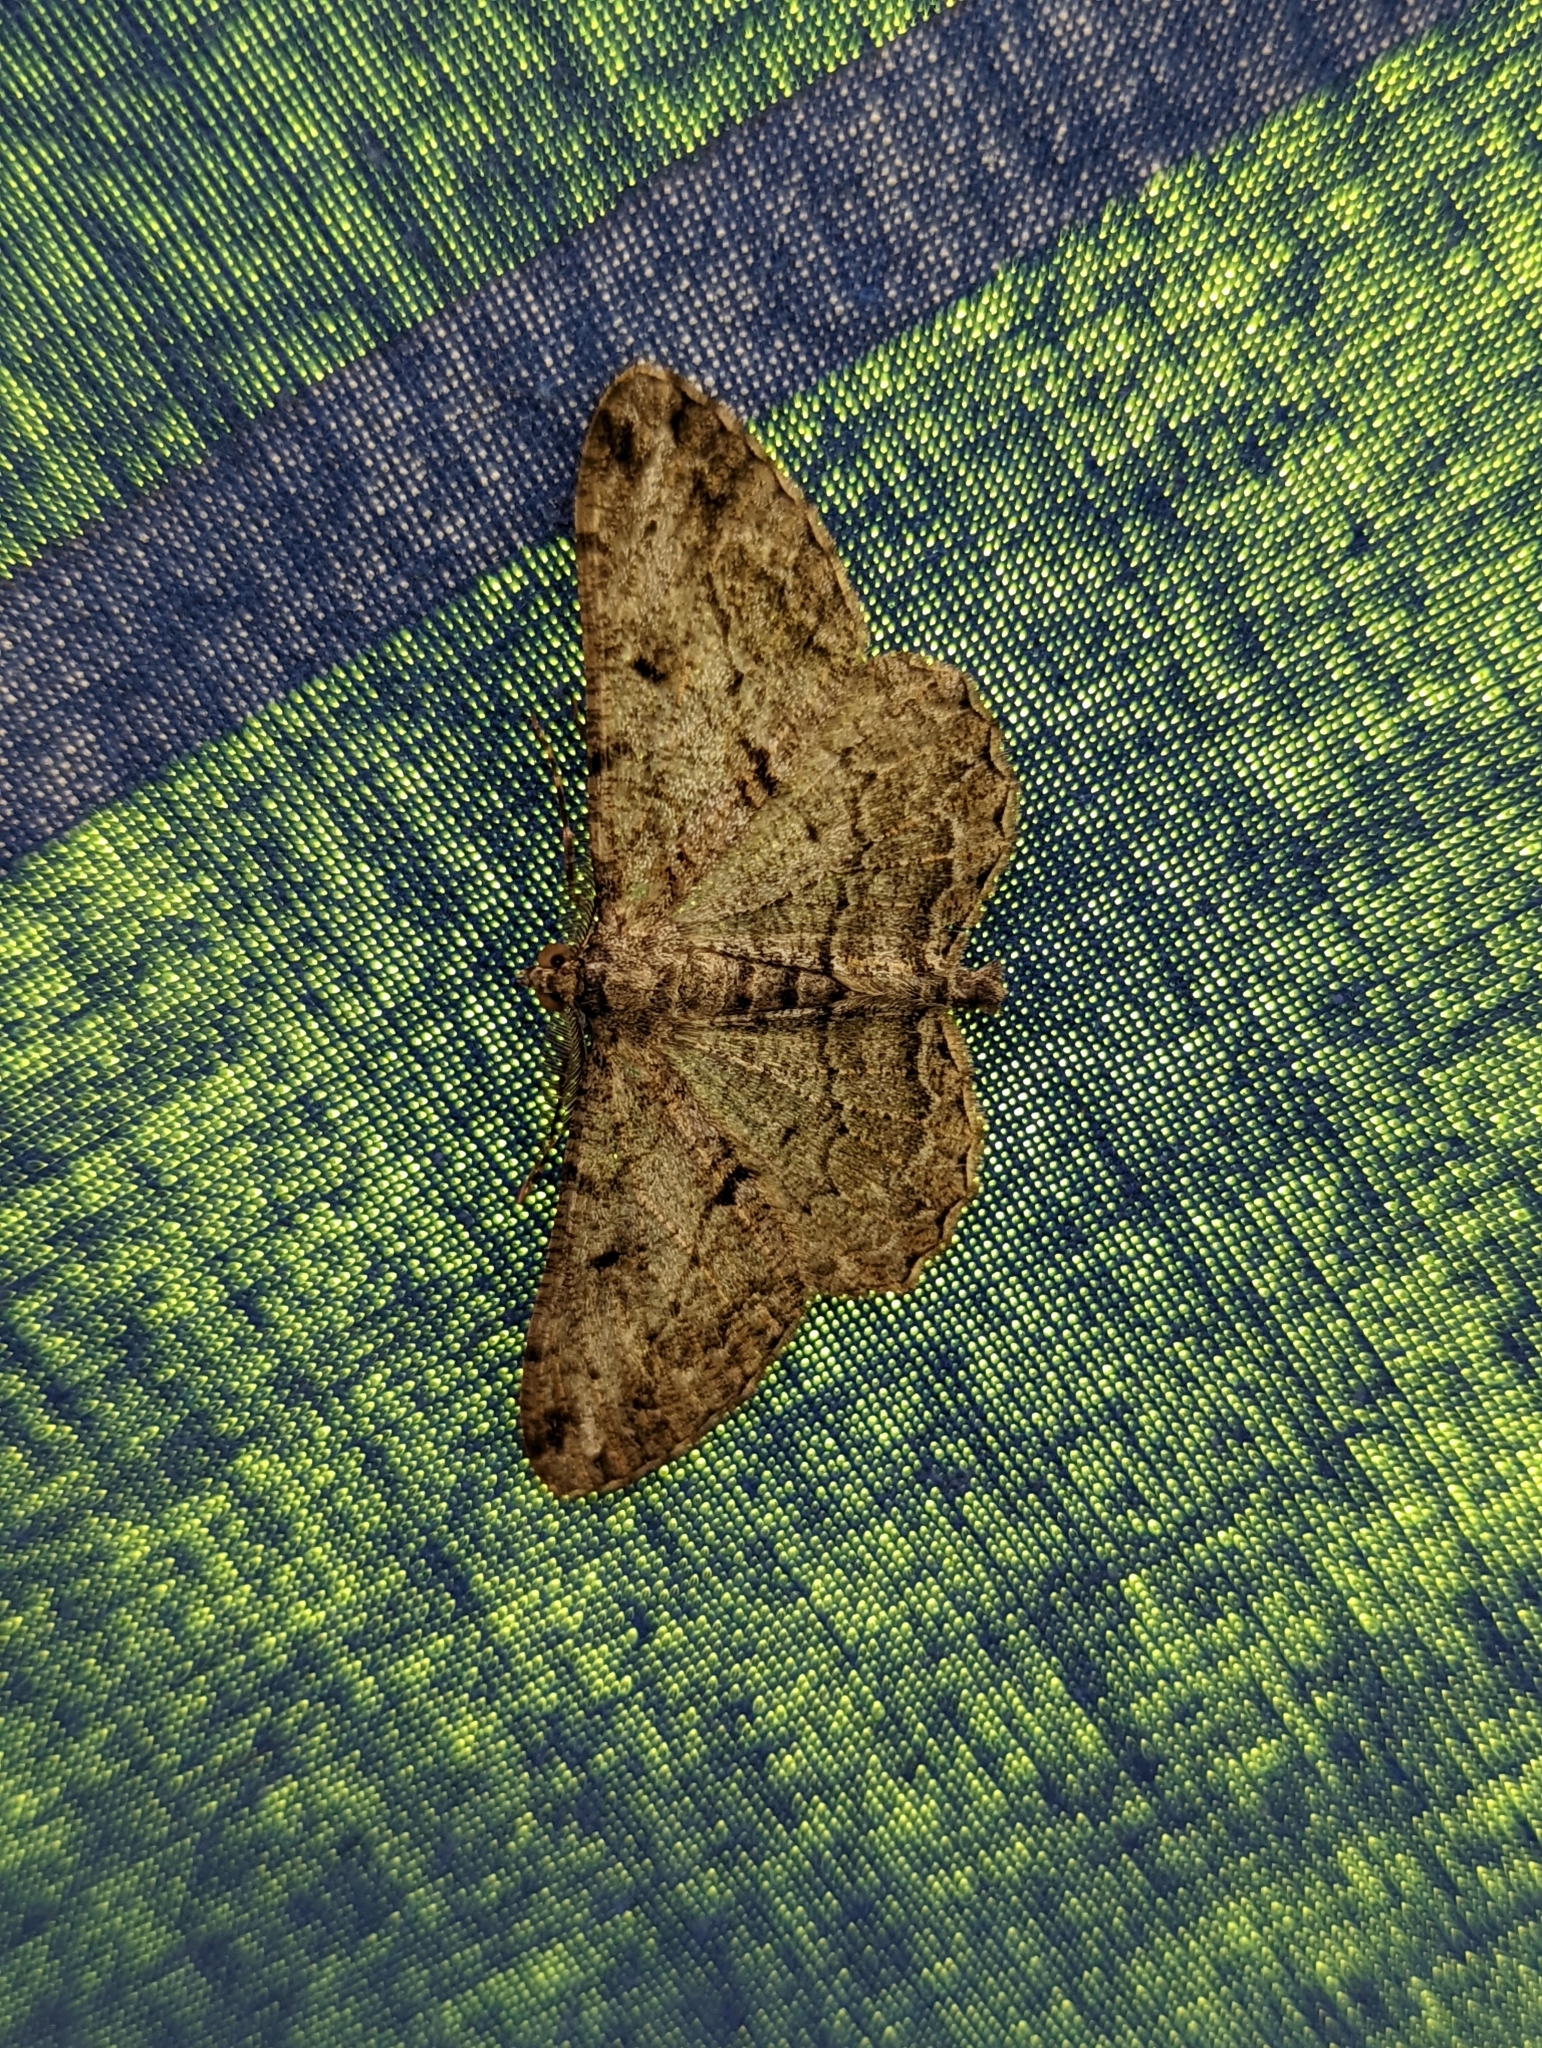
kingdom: Animalia
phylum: Arthropoda
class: Insecta
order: Lepidoptera
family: Geometridae
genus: Peribatodes
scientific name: Peribatodes rhomboidaria
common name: Willow beauty
